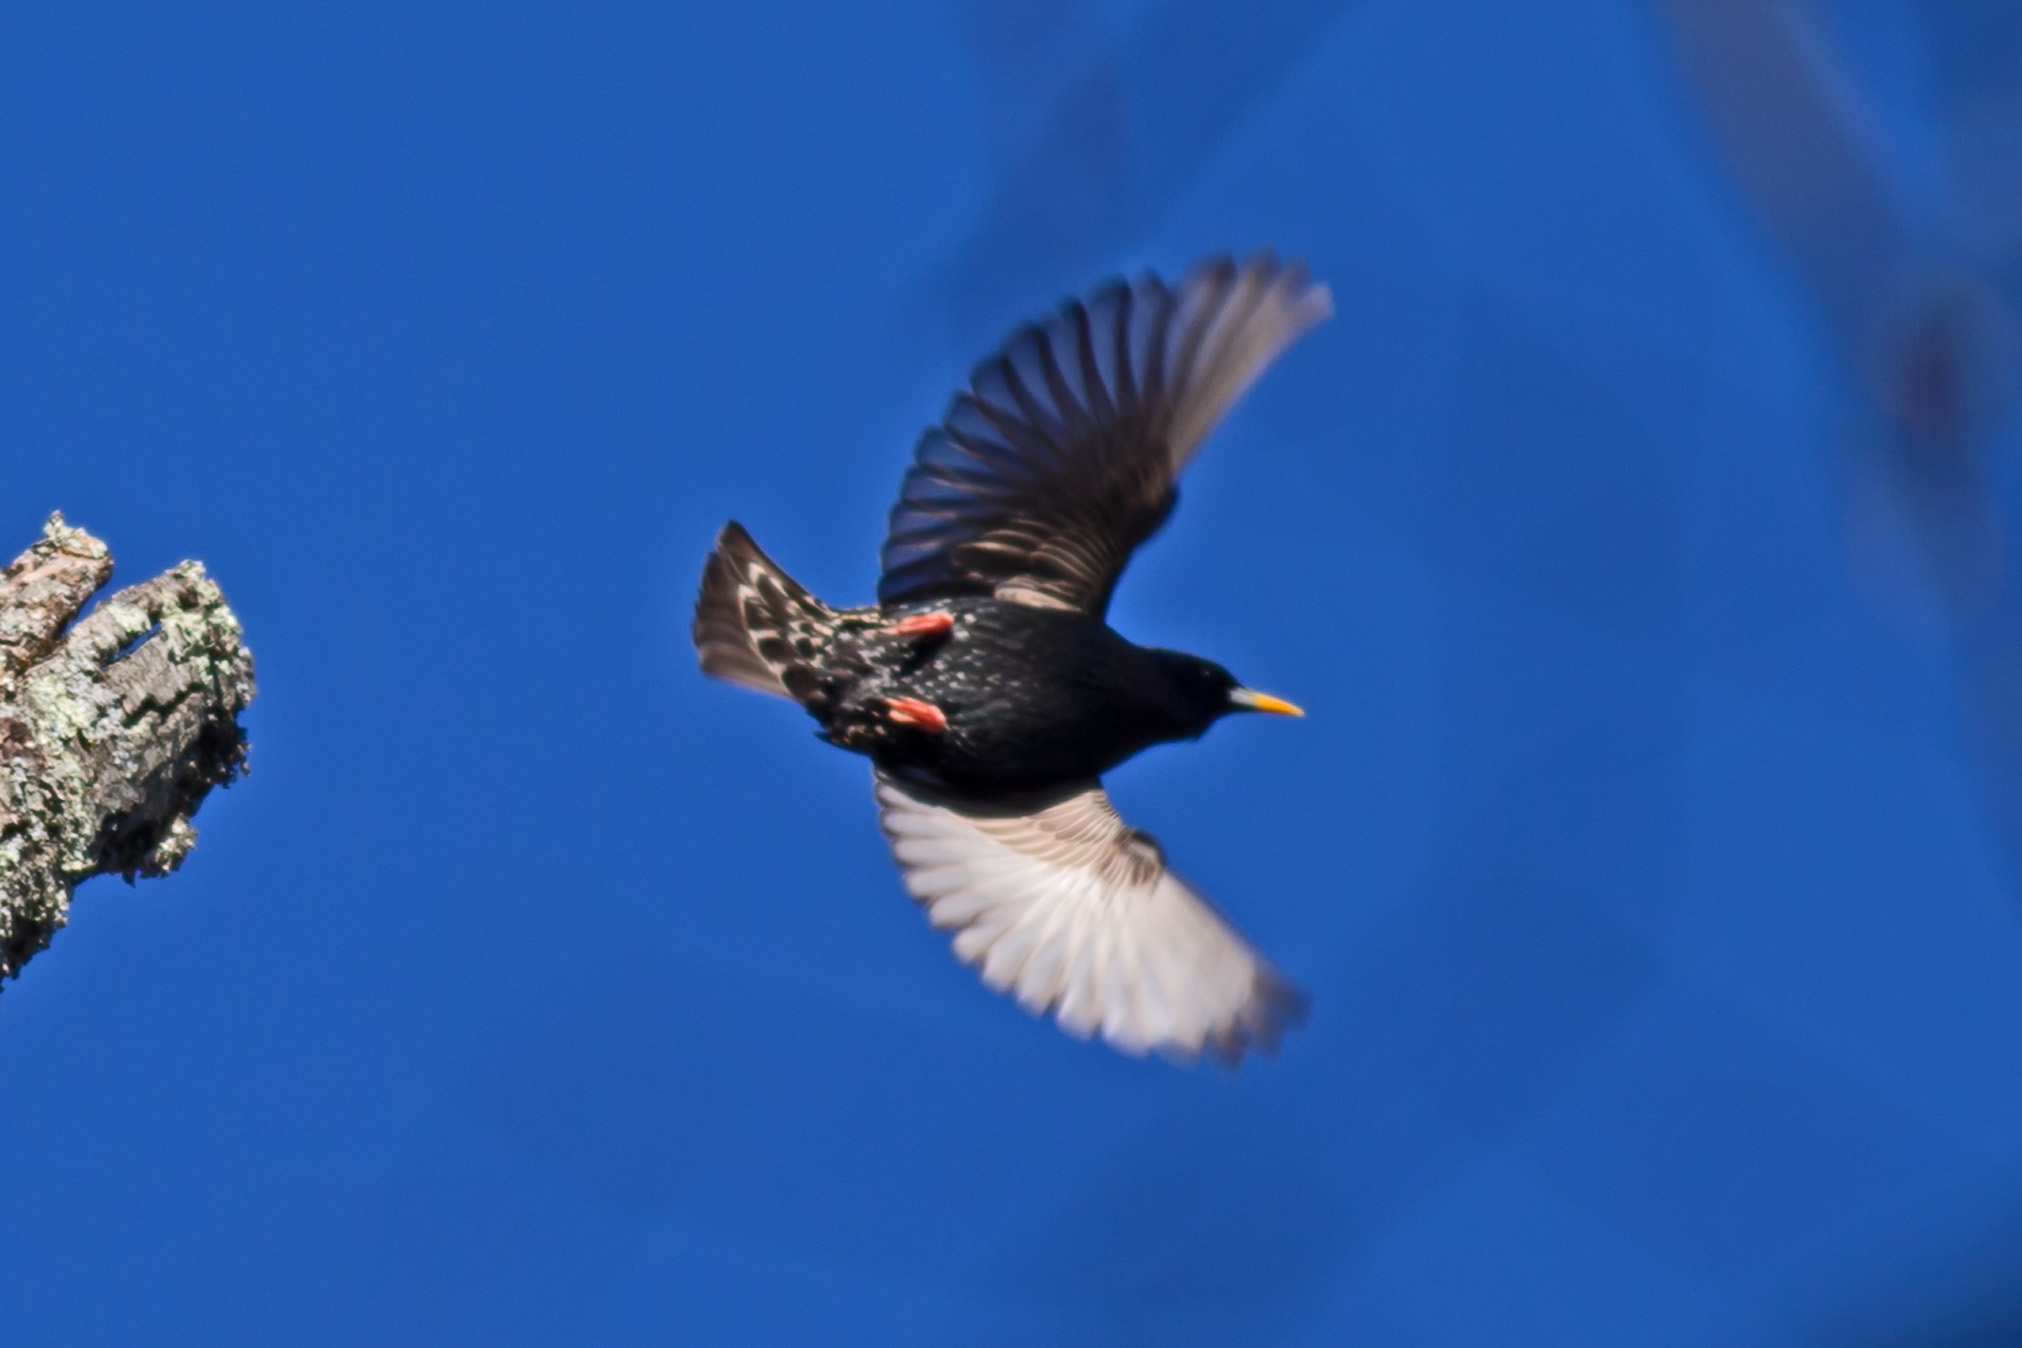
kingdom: Animalia
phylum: Chordata
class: Aves
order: Passeriformes
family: Sturnidae
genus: Sturnus
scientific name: Sturnus vulgaris
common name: Common starling
